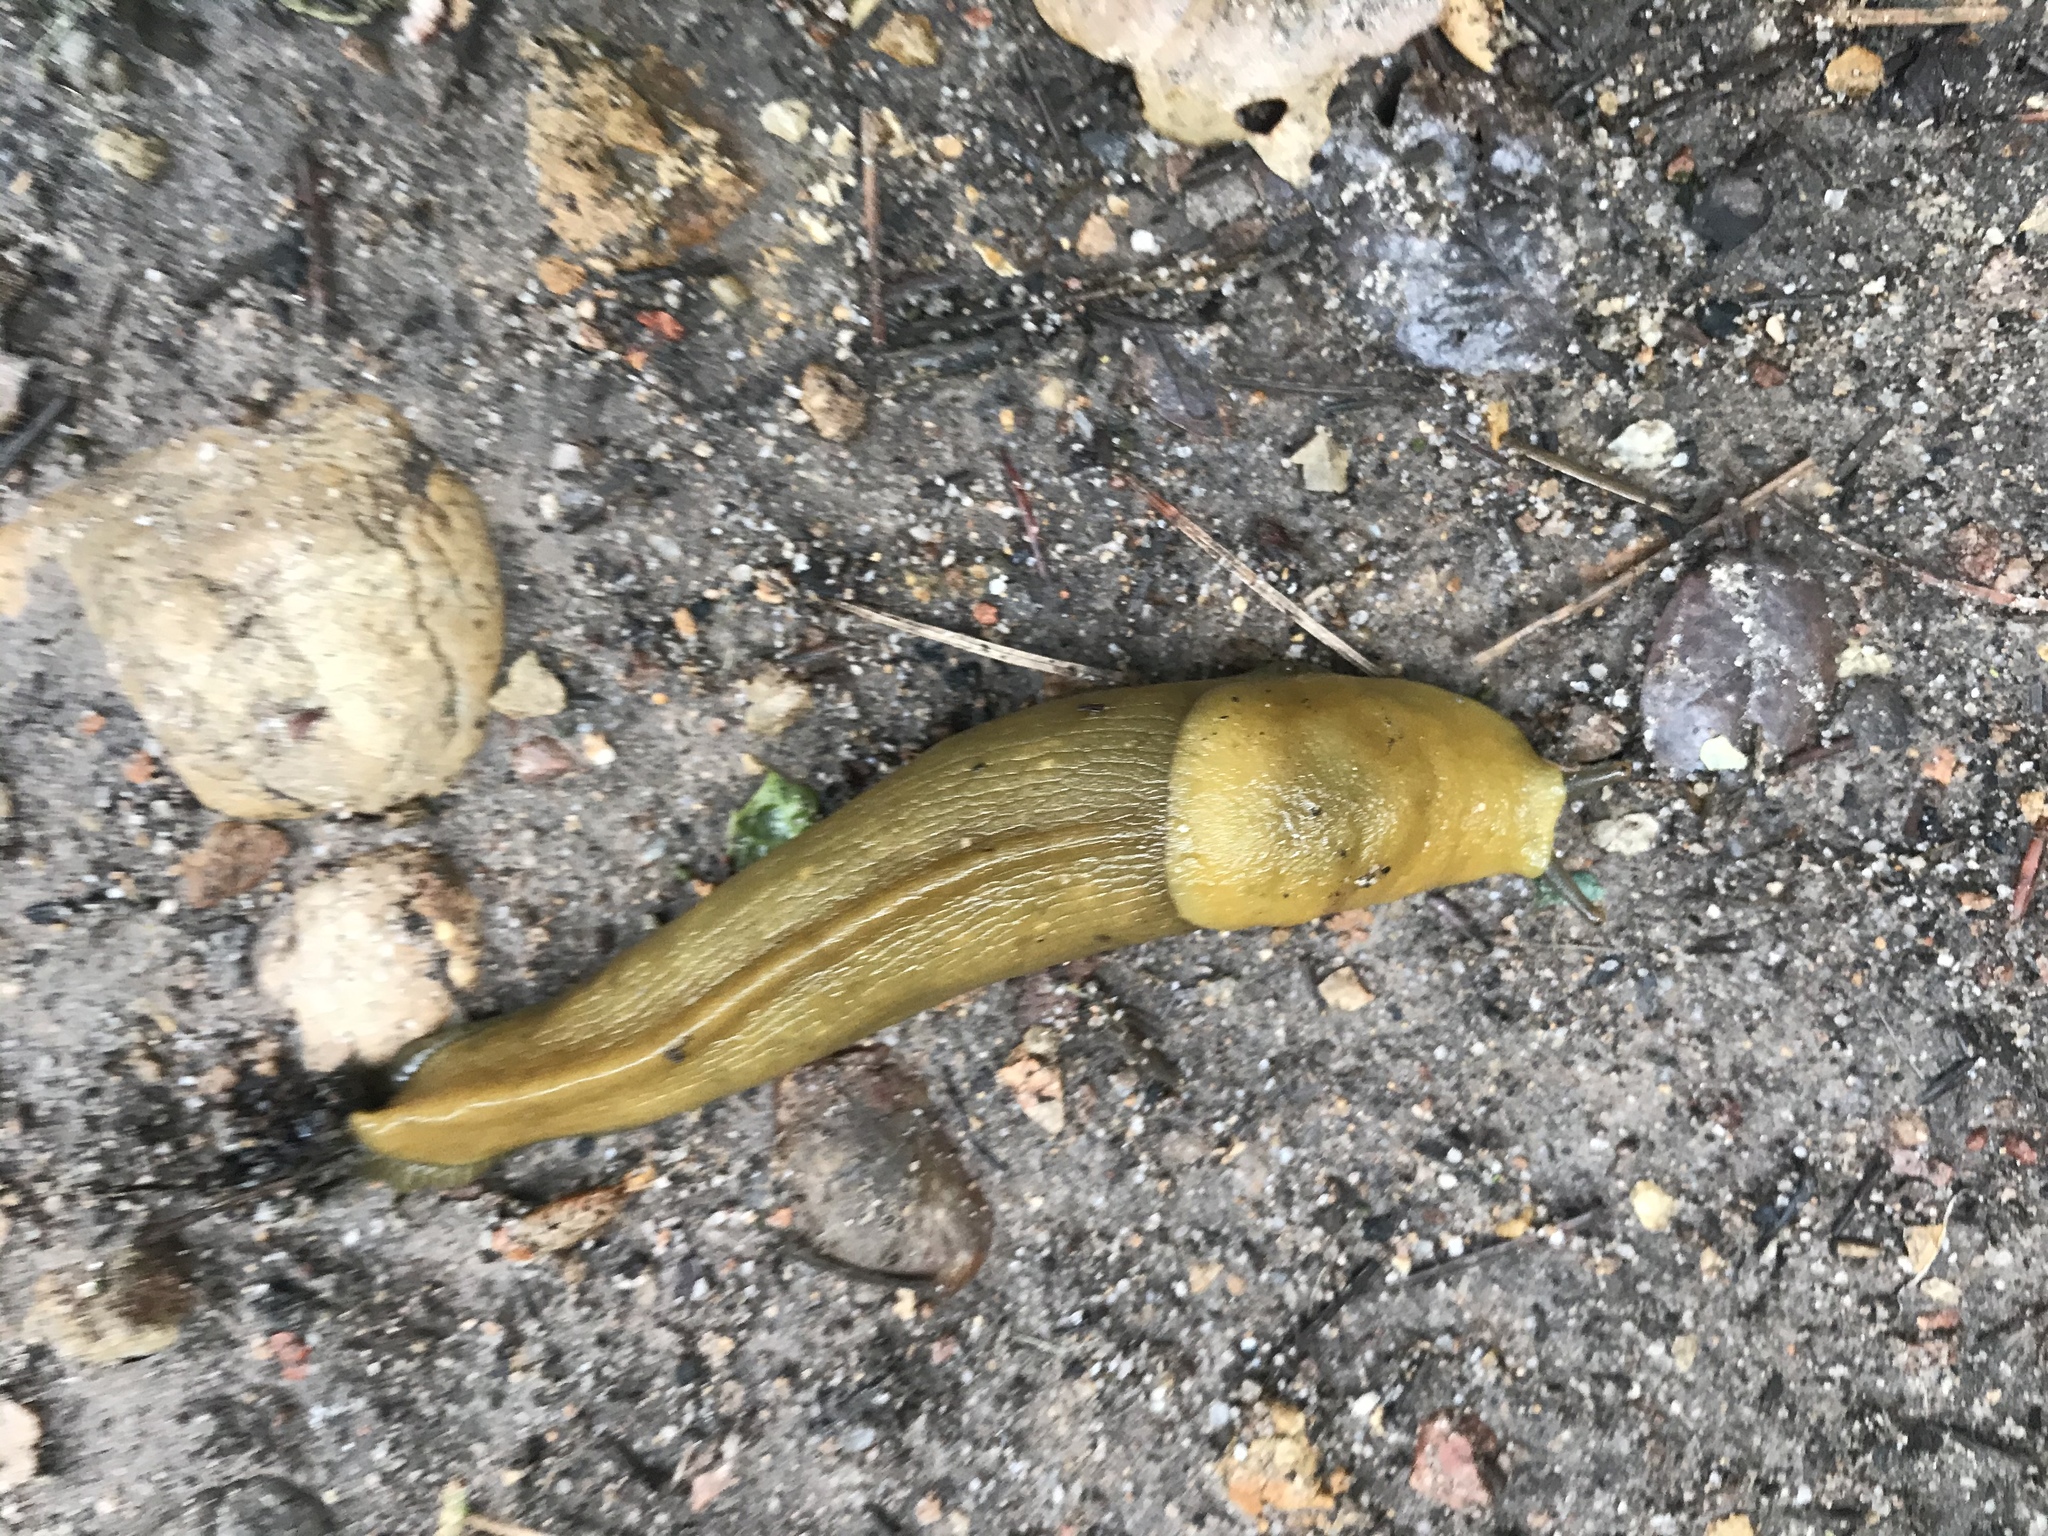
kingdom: Animalia
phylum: Mollusca
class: Gastropoda
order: Stylommatophora
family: Ariolimacidae
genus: Ariolimax
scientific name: Ariolimax stramineus
